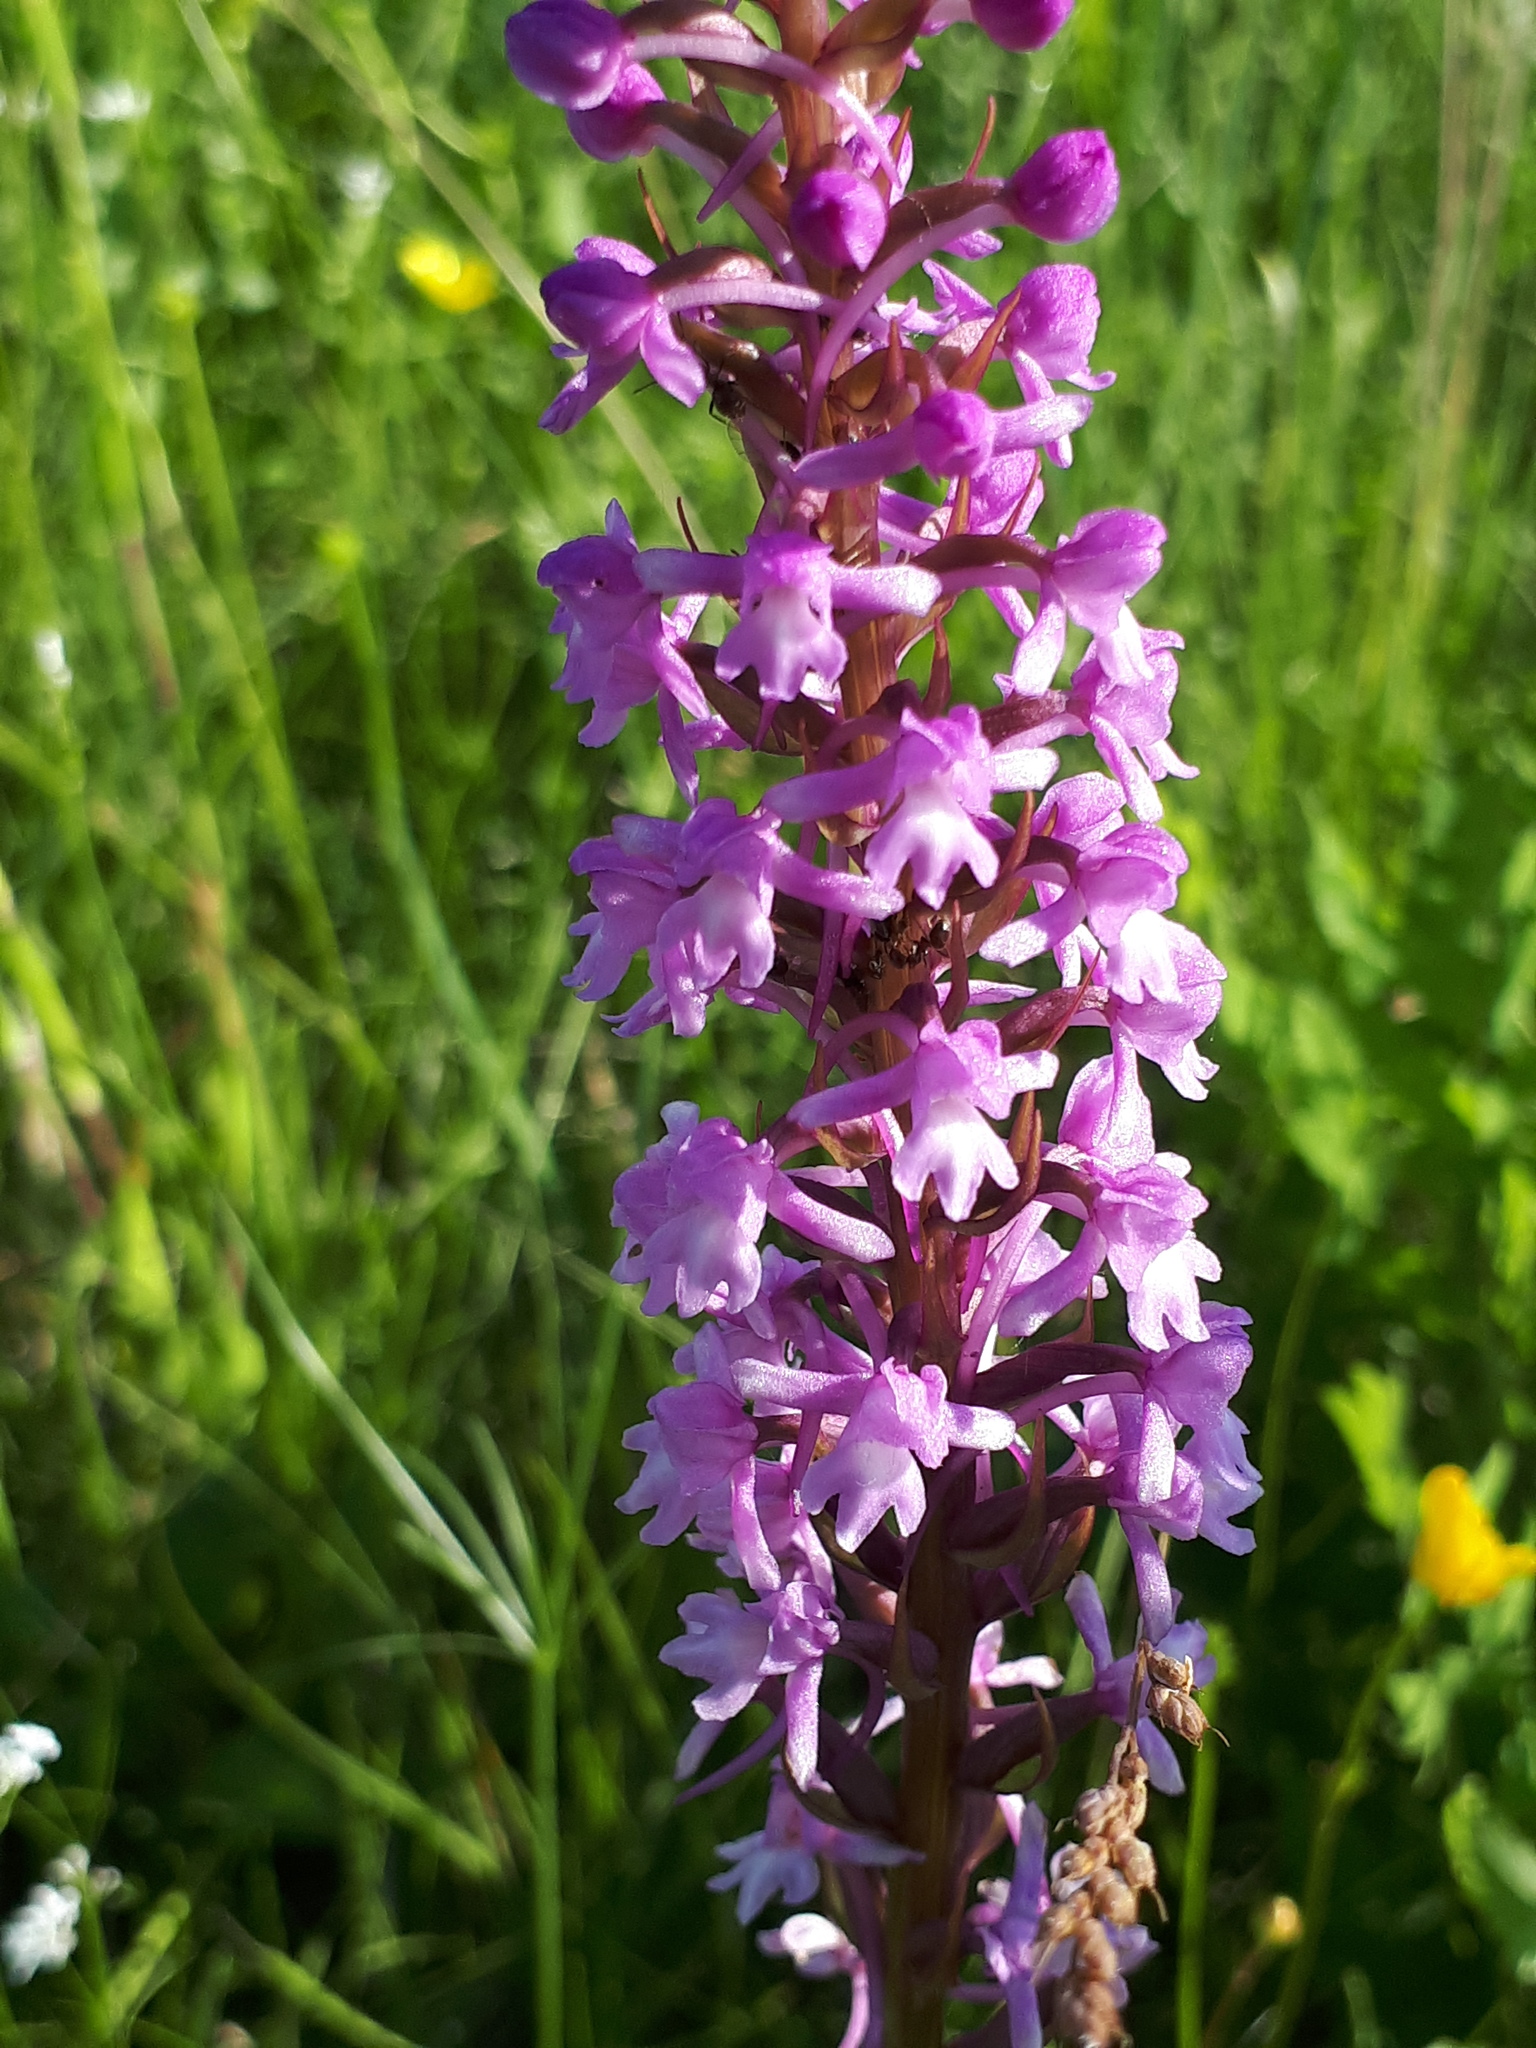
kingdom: Plantae
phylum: Tracheophyta
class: Liliopsida
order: Asparagales
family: Orchidaceae
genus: Gymnadenia
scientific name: Gymnadenia conopsea
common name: Fragrant orchid
